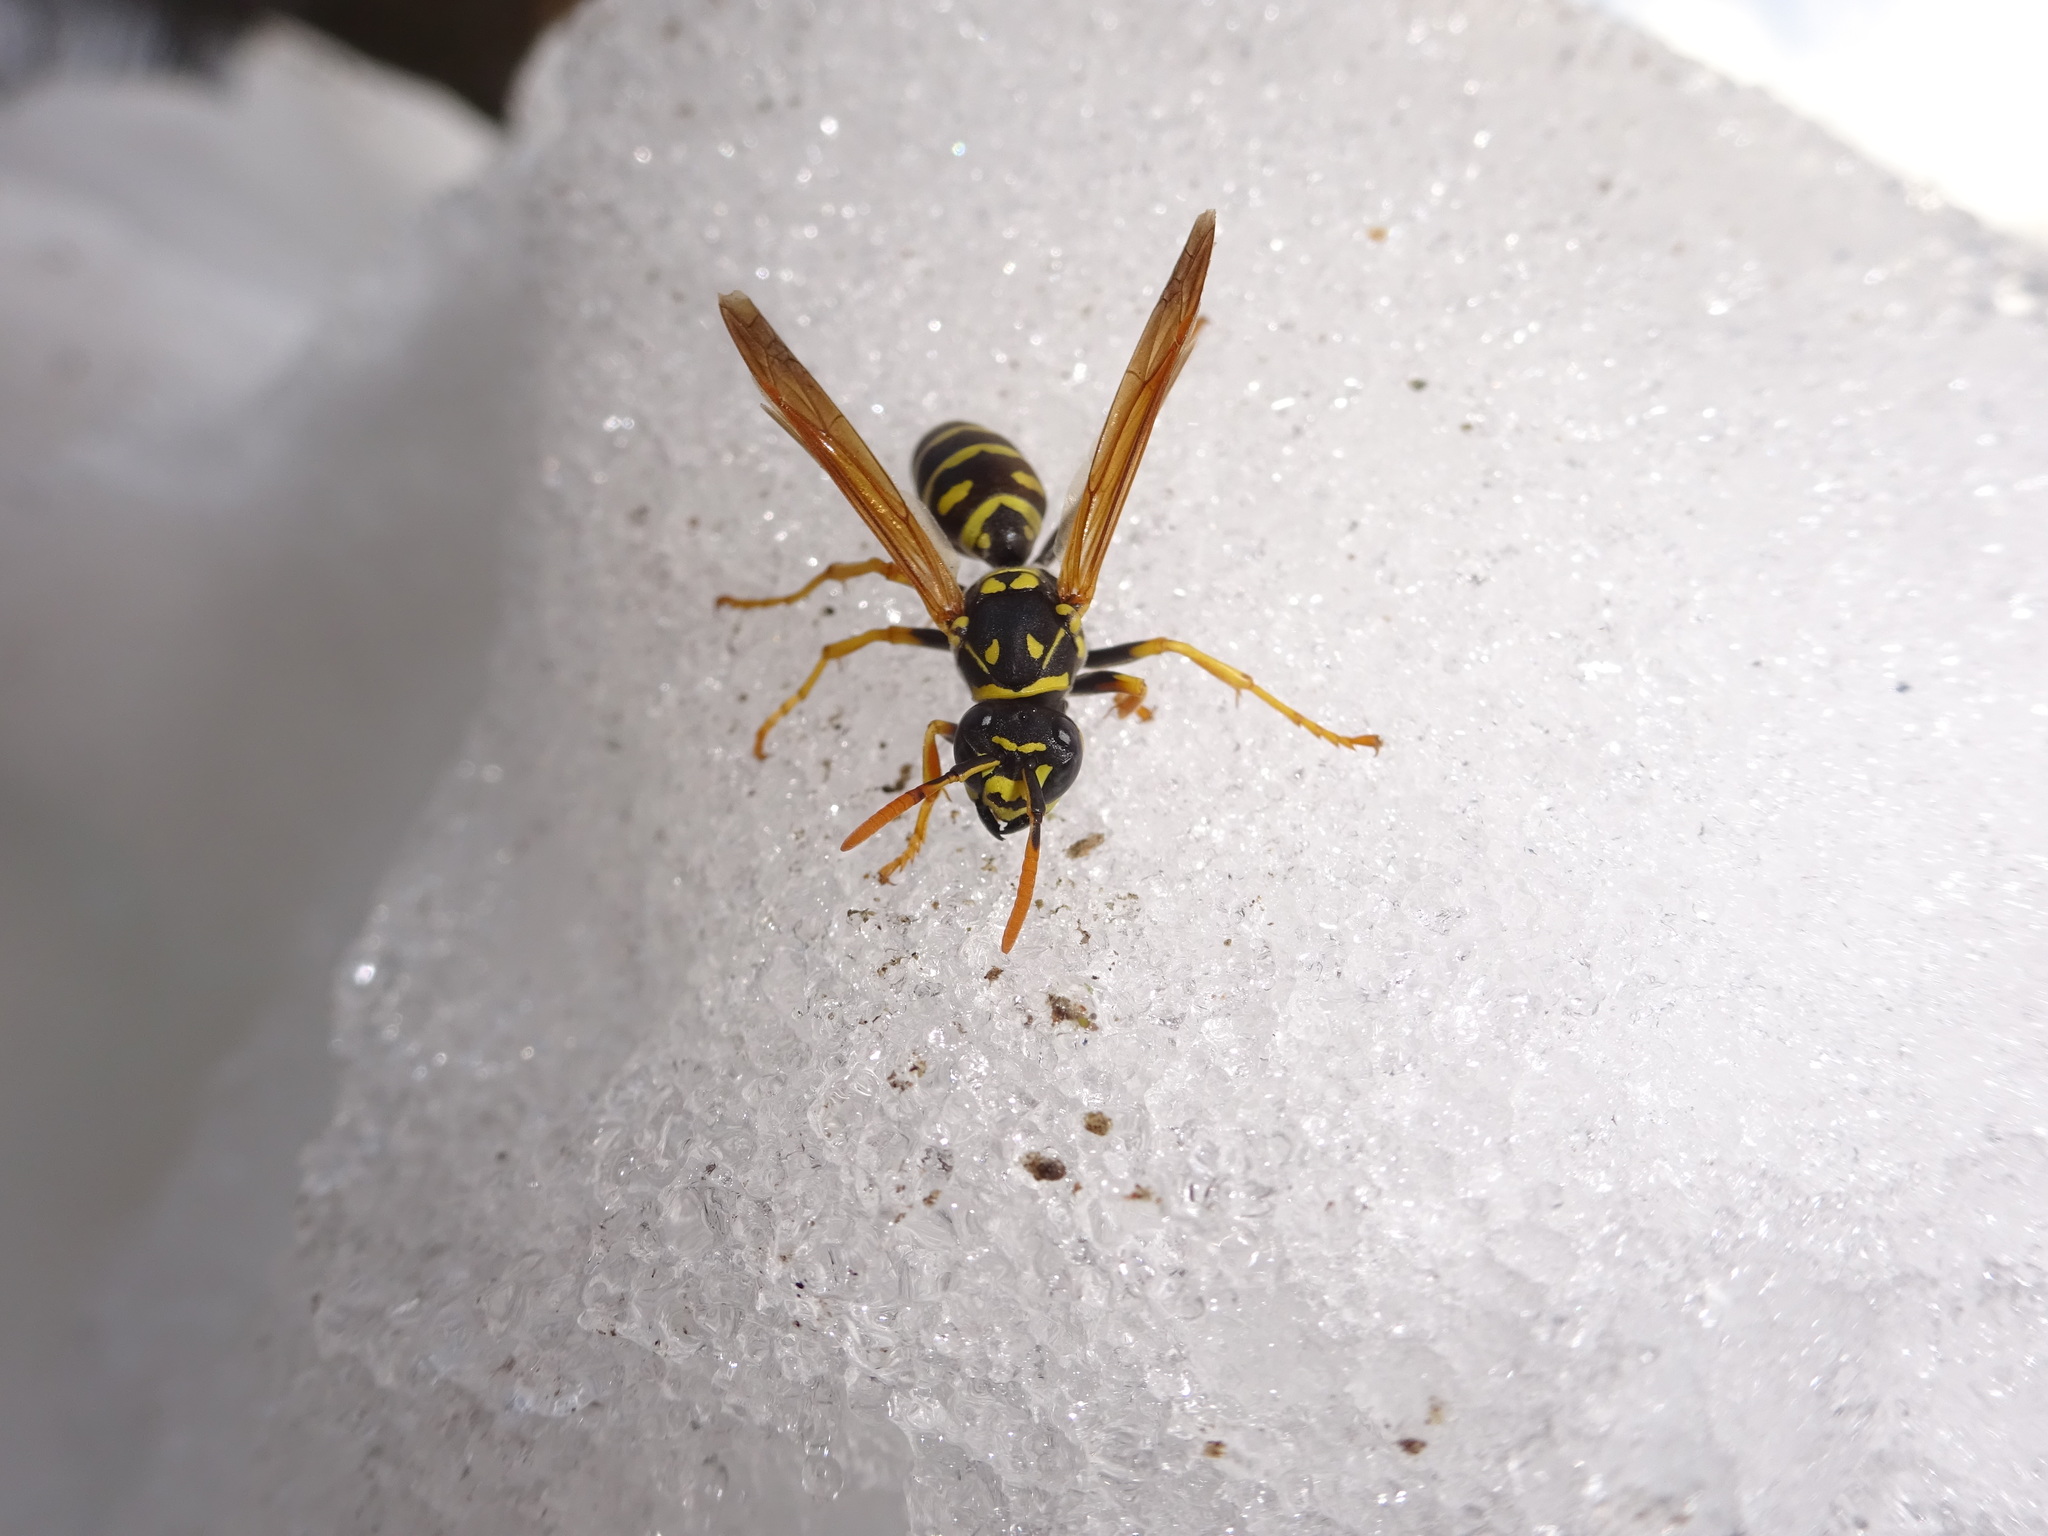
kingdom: Animalia
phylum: Arthropoda
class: Insecta
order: Hymenoptera
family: Eumenidae
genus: Polistes
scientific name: Polistes dominula
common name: Paper wasp
